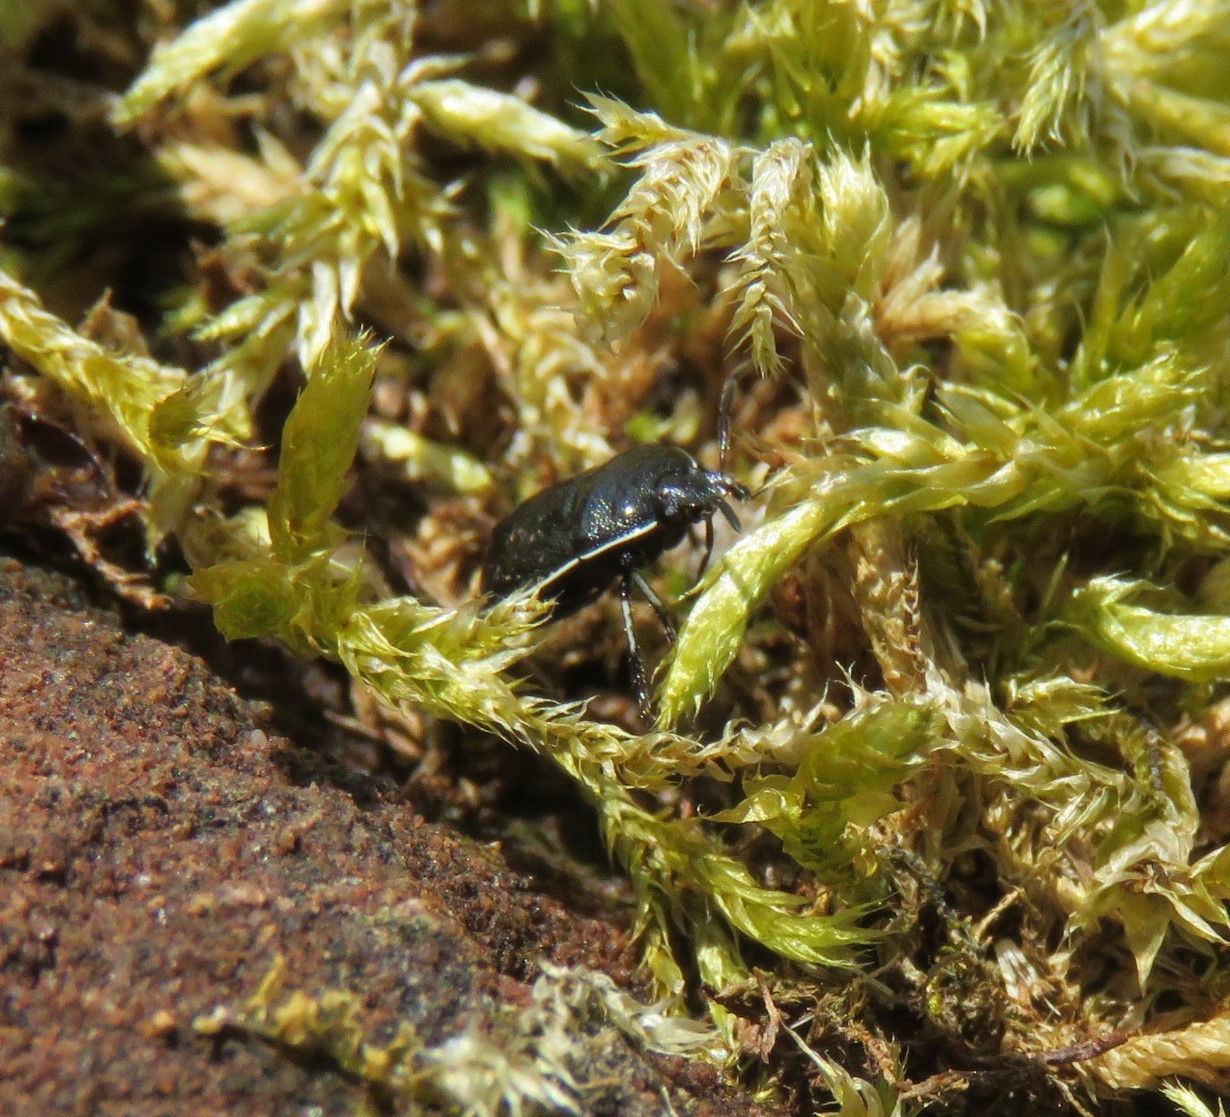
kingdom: Animalia
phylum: Arthropoda
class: Insecta
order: Hemiptera
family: Cydnidae
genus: Sehirus
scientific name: Sehirus cinctus
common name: White-margined burrower bug
